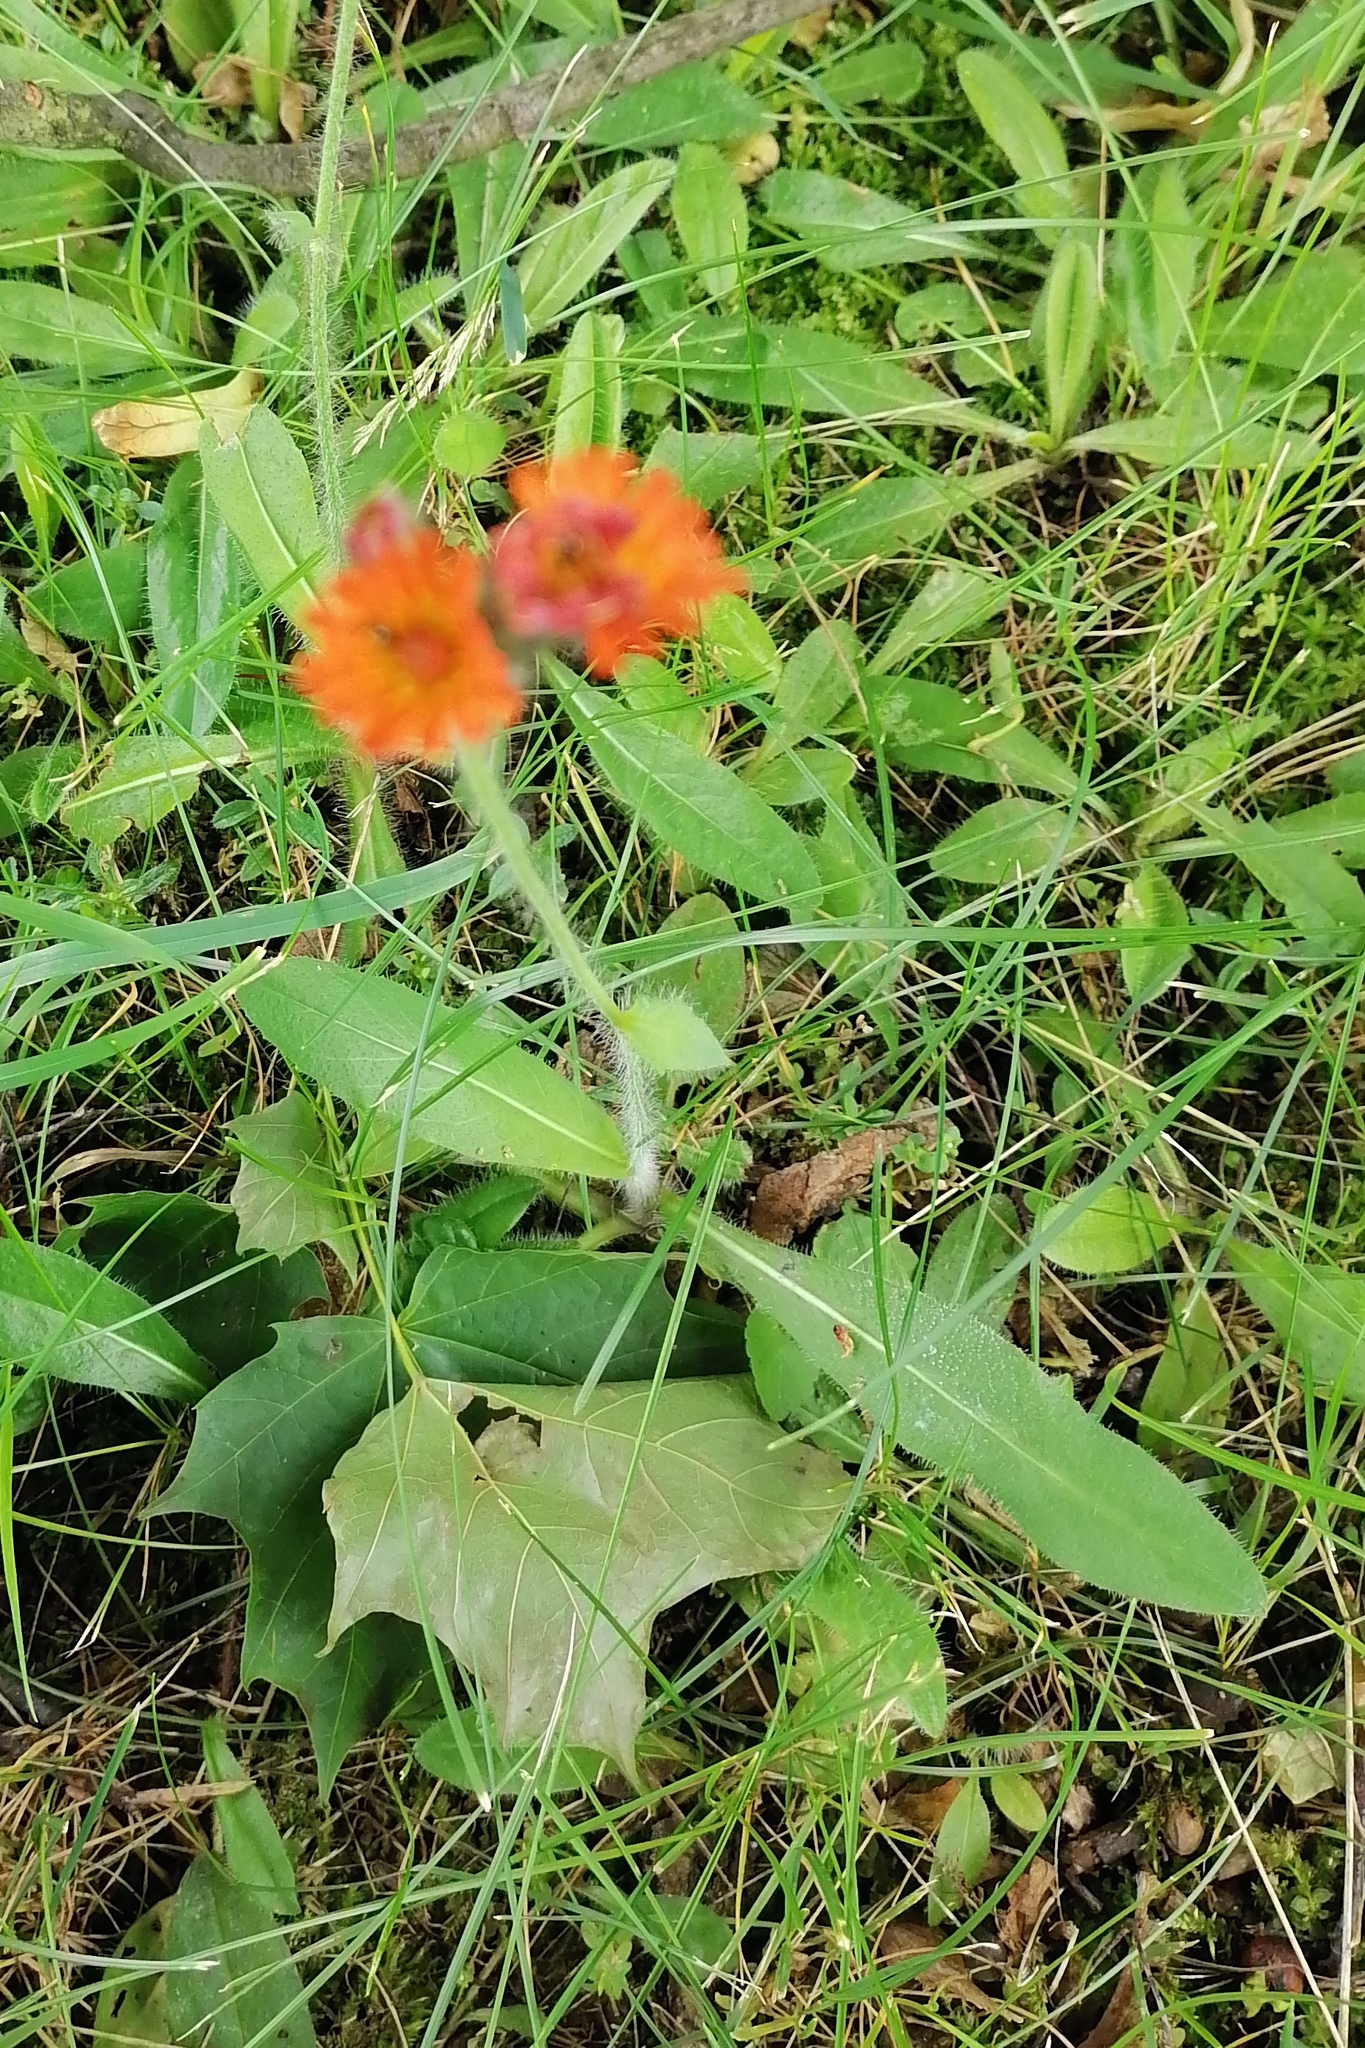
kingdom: Plantae
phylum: Tracheophyta
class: Magnoliopsida
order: Asterales
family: Asteraceae
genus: Pilosella
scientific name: Pilosella aurantiaca
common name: Fox-and-cubs
